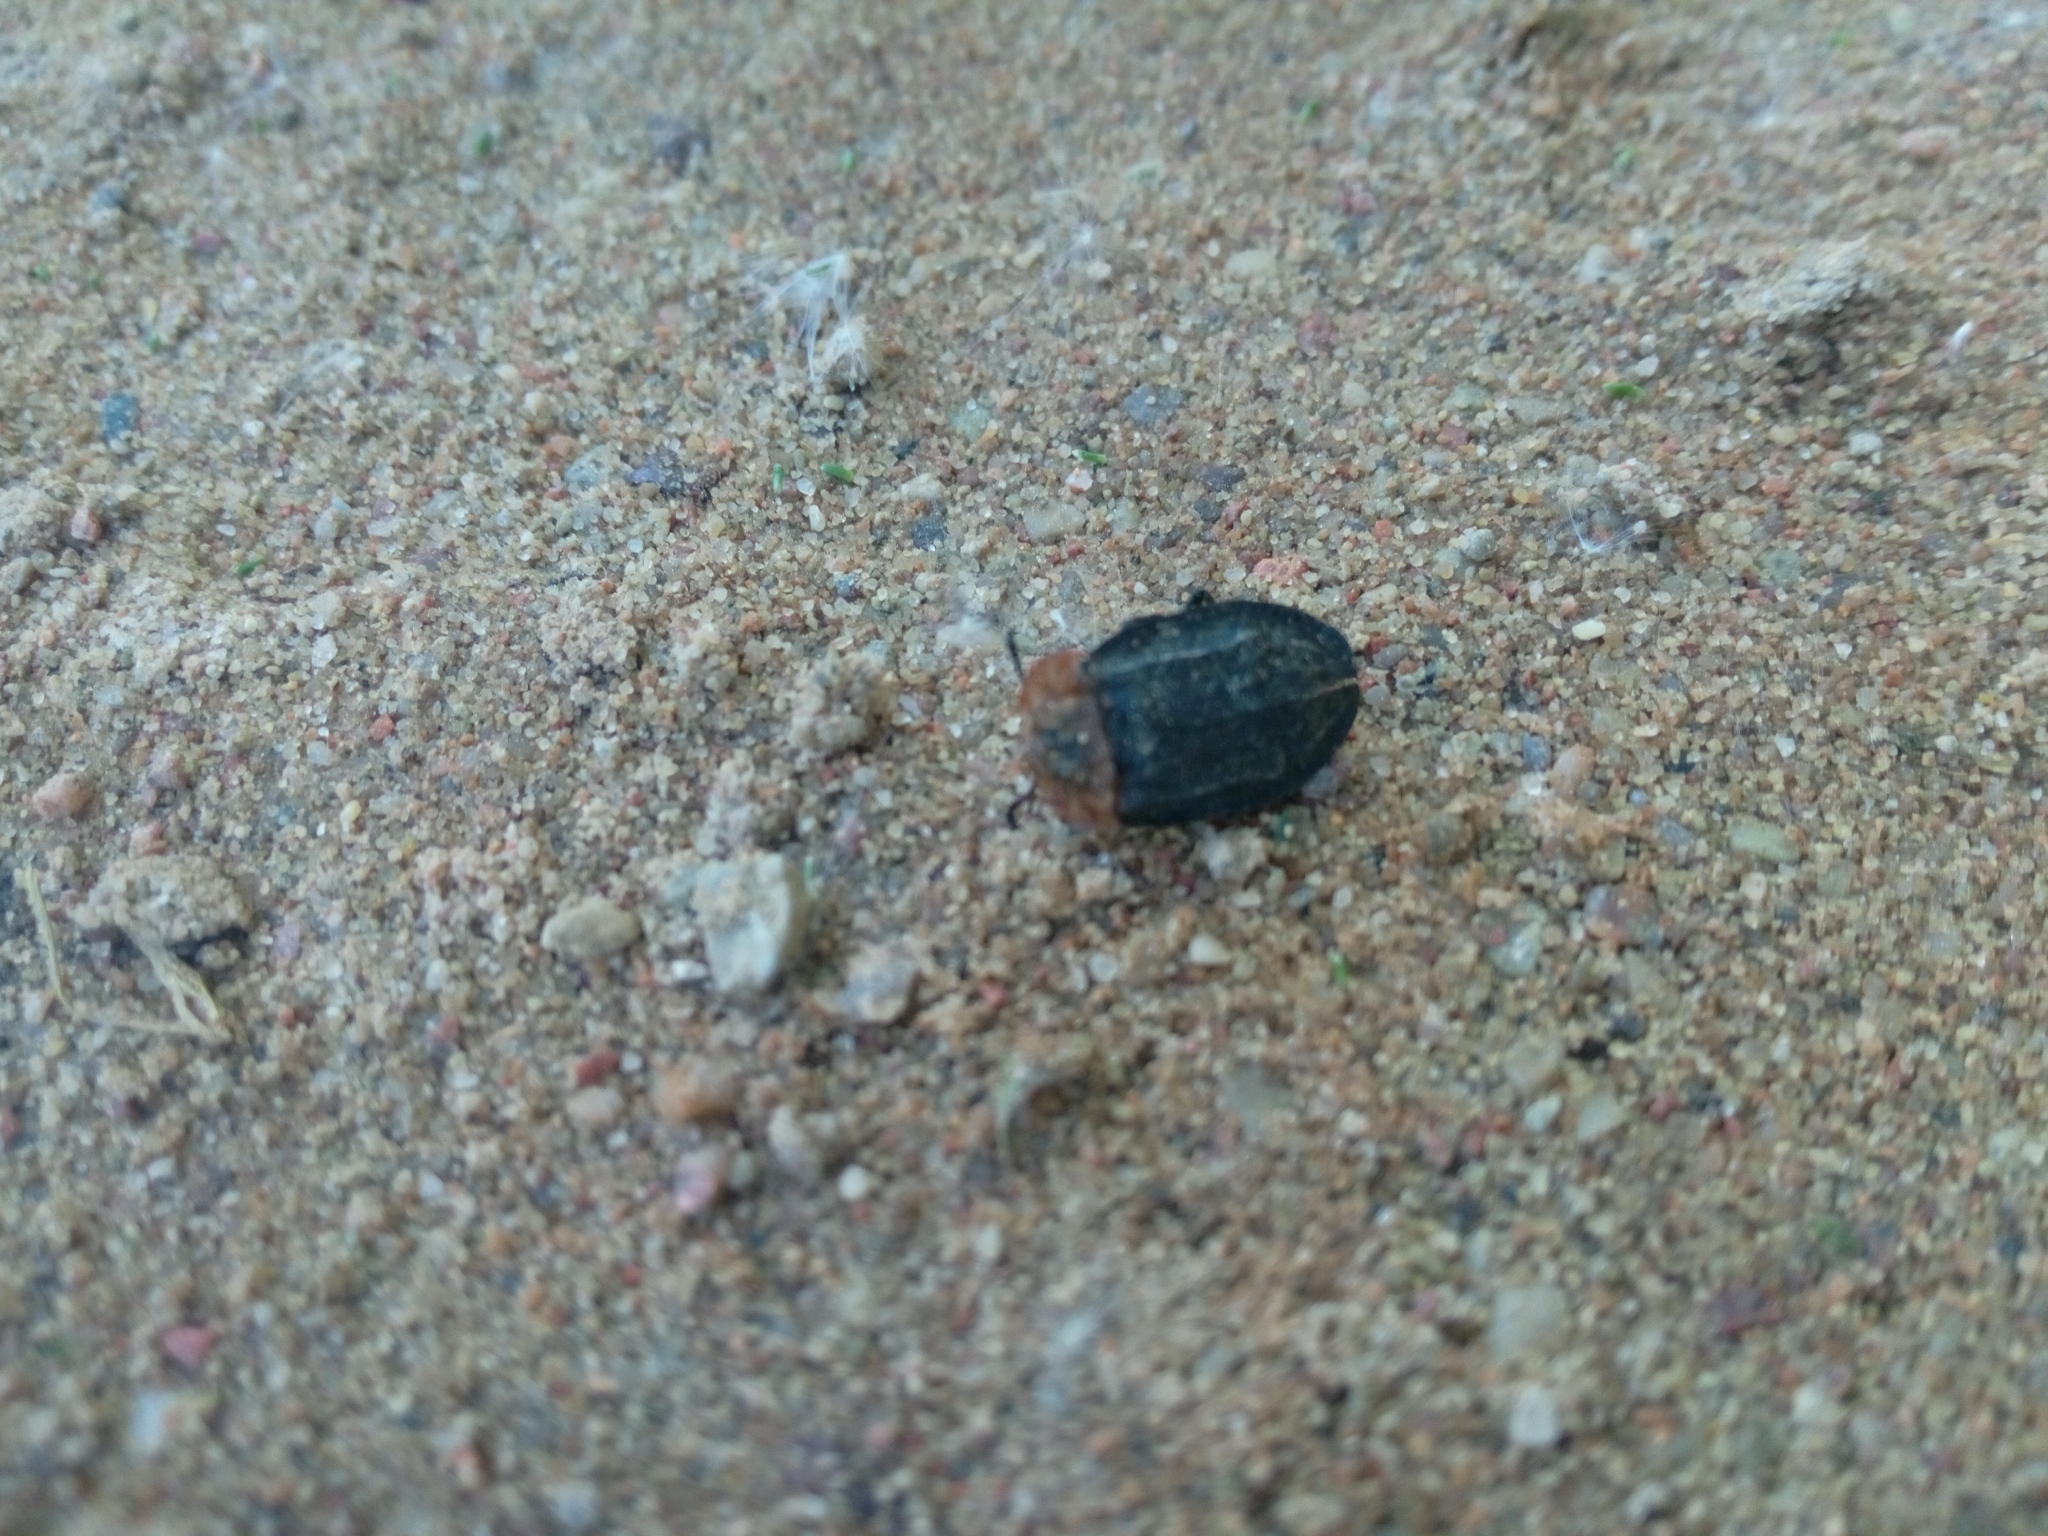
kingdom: Animalia
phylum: Arthropoda
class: Insecta
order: Coleoptera
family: Staphylinidae
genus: Oiceoptoma
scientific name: Oiceoptoma thoracicum
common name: Red-breasted carrion beetle
